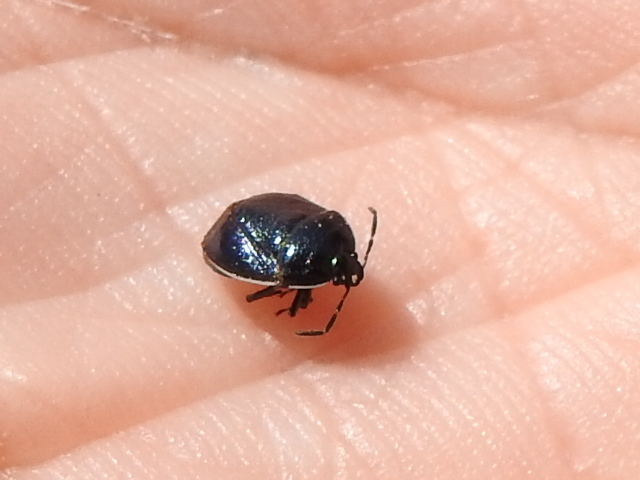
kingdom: Animalia
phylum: Arthropoda
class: Insecta
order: Hemiptera
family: Cydnidae
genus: Sehirus
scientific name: Sehirus cinctus
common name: White-margined burrower bug
